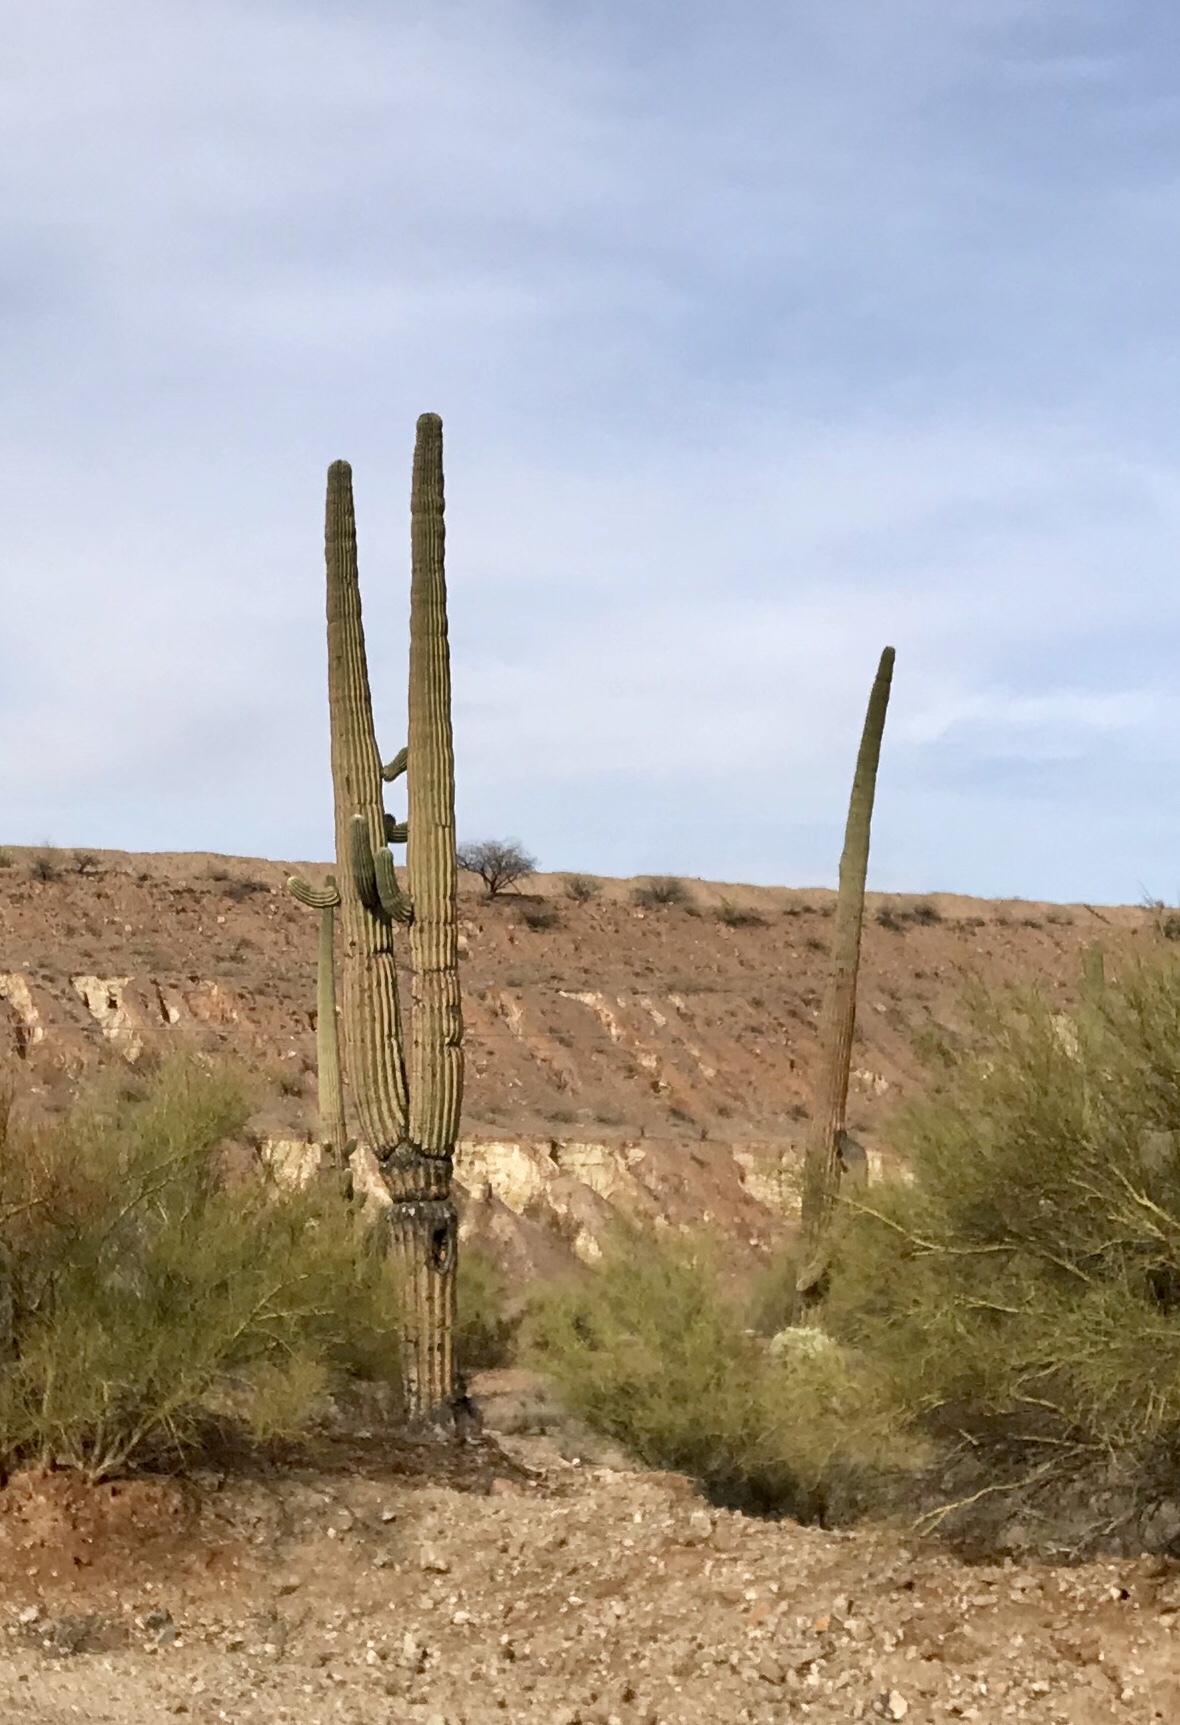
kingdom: Plantae
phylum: Tracheophyta
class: Magnoliopsida
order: Caryophyllales
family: Cactaceae
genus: Carnegiea
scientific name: Carnegiea gigantea
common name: Saguaro
